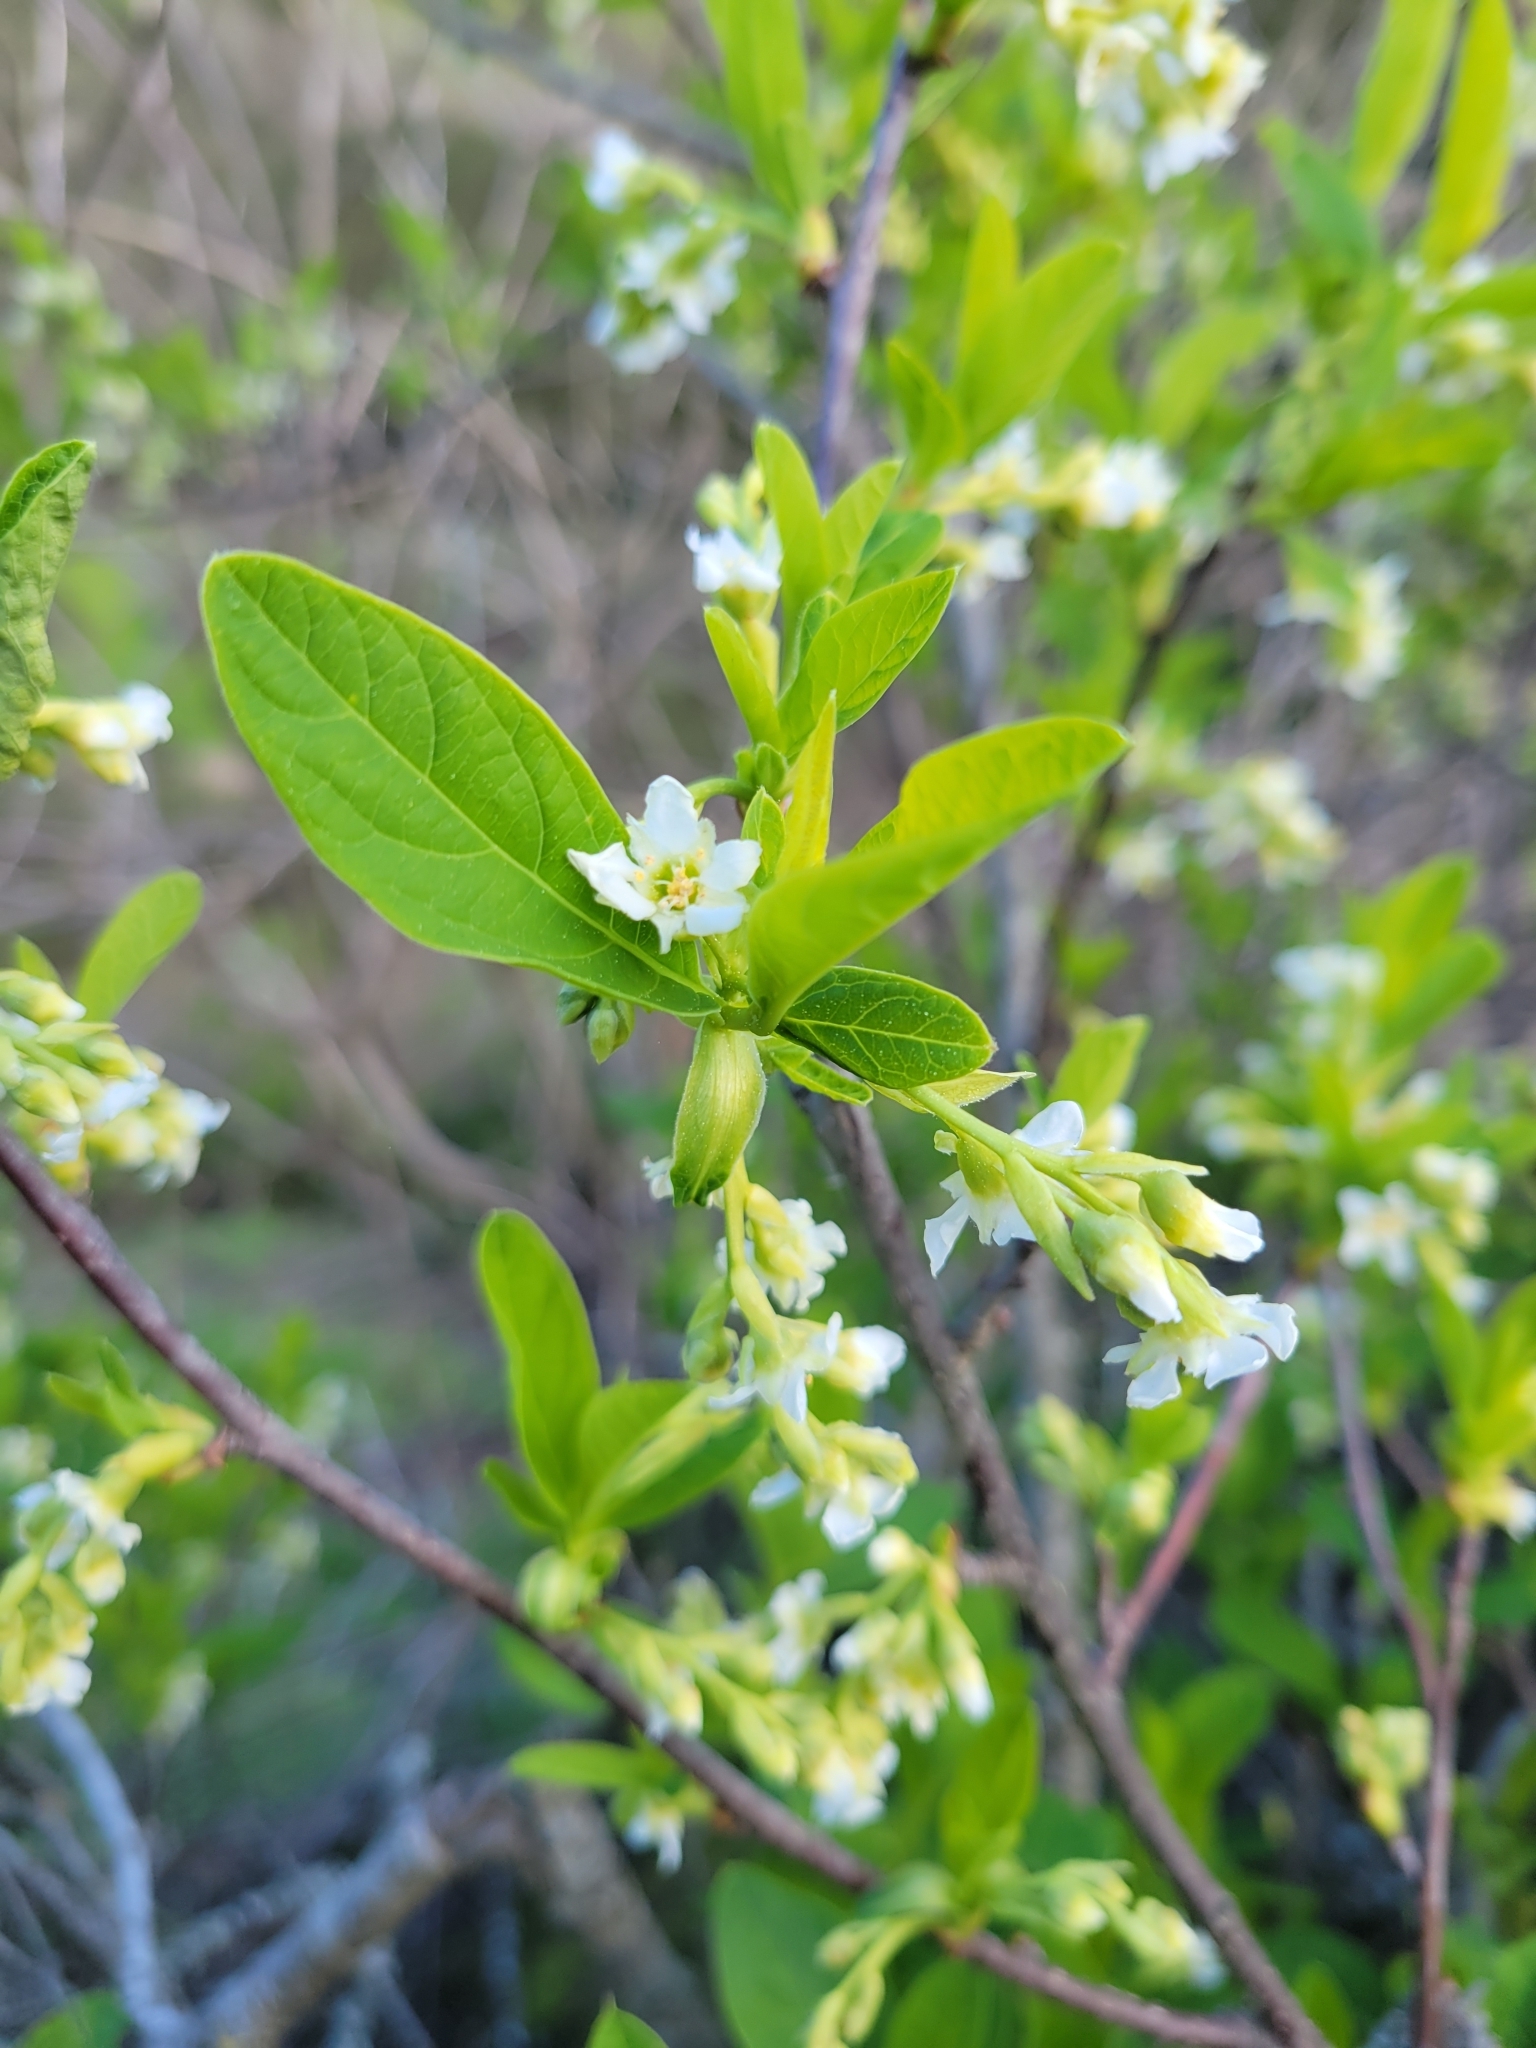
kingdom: Plantae
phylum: Tracheophyta
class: Magnoliopsida
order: Rosales
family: Rosaceae
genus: Oemleria
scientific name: Oemleria cerasiformis
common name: Osoberry
